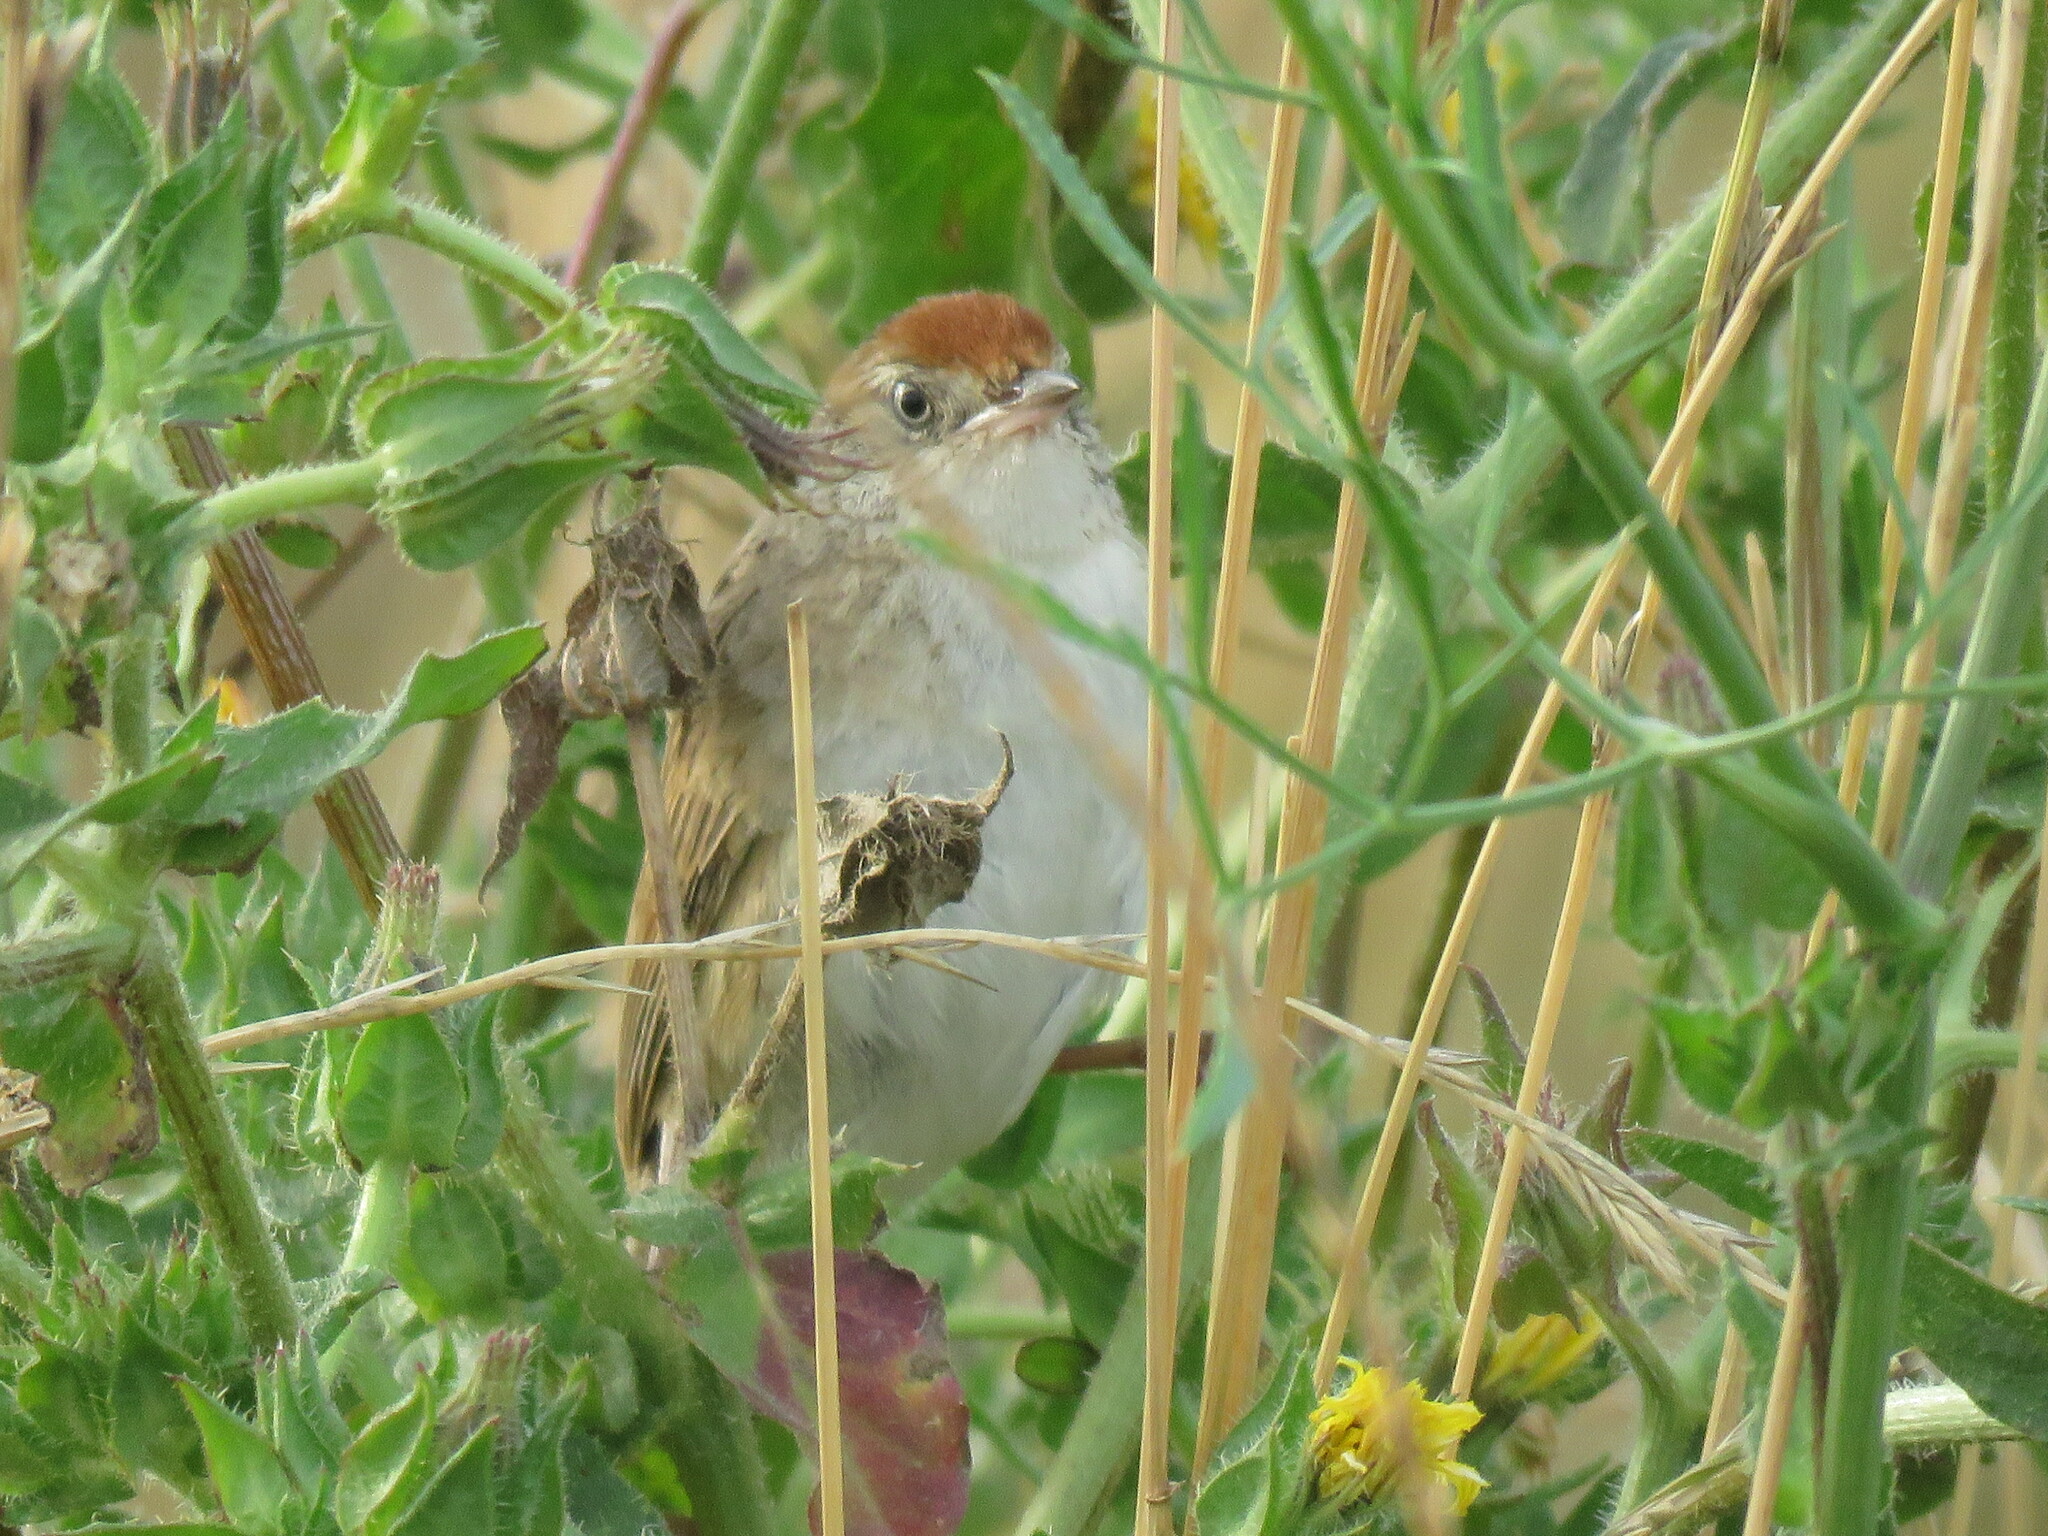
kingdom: Animalia
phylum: Chordata
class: Aves
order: Passeriformes
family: Furnariidae
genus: Spartonoica
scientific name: Spartonoica maluroides
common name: Bay-capped wren-spinetail
